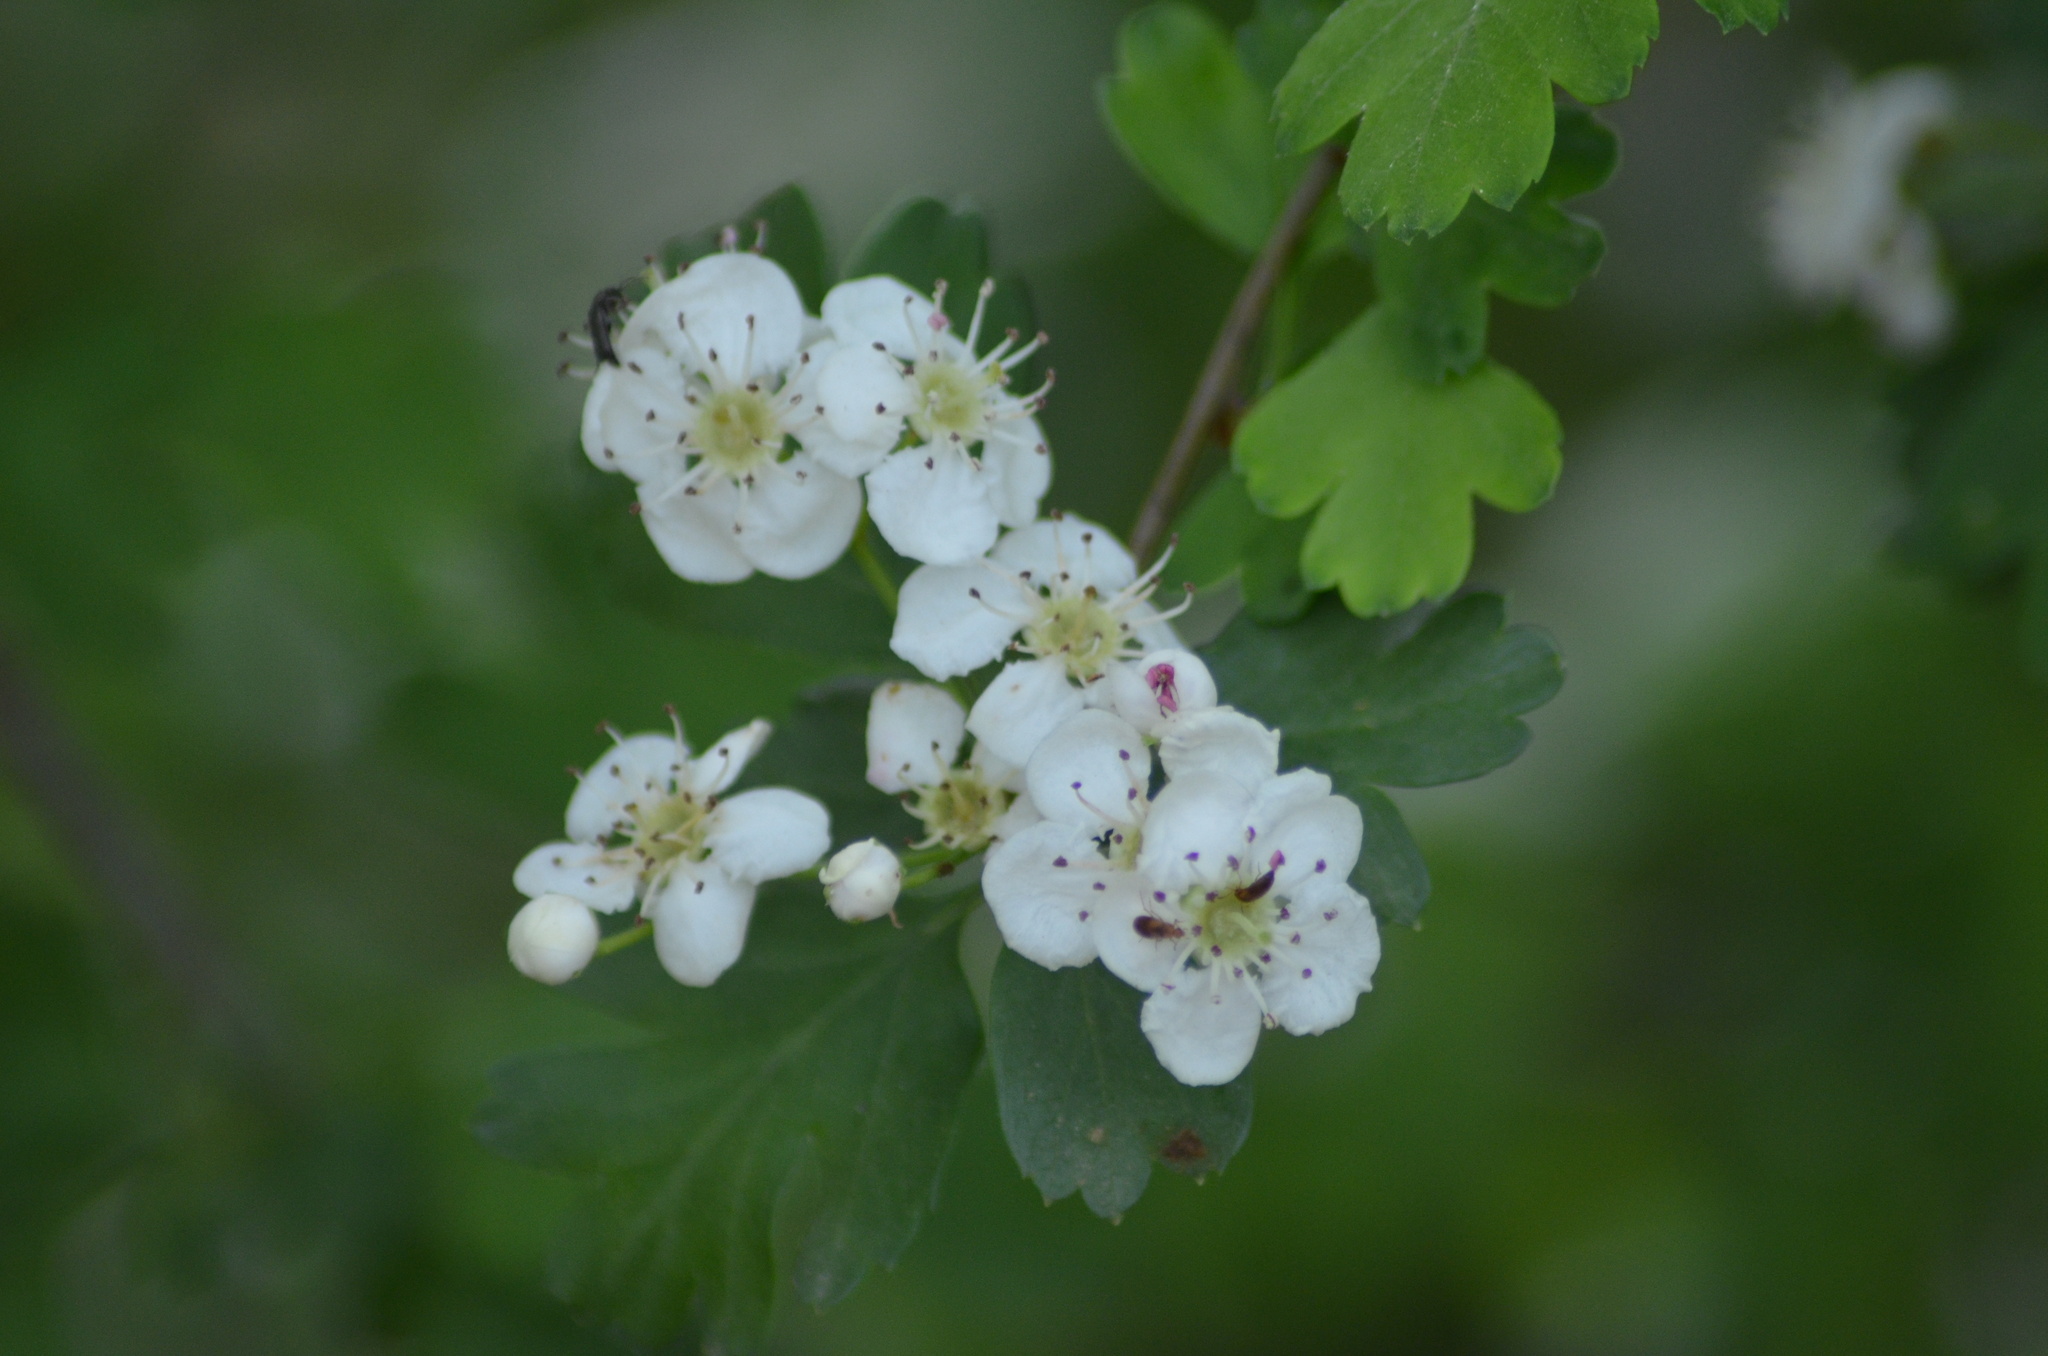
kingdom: Plantae
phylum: Tracheophyta
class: Magnoliopsida
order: Rosales
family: Rosaceae
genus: Crataegus
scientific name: Crataegus monogyna
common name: Hawthorn
